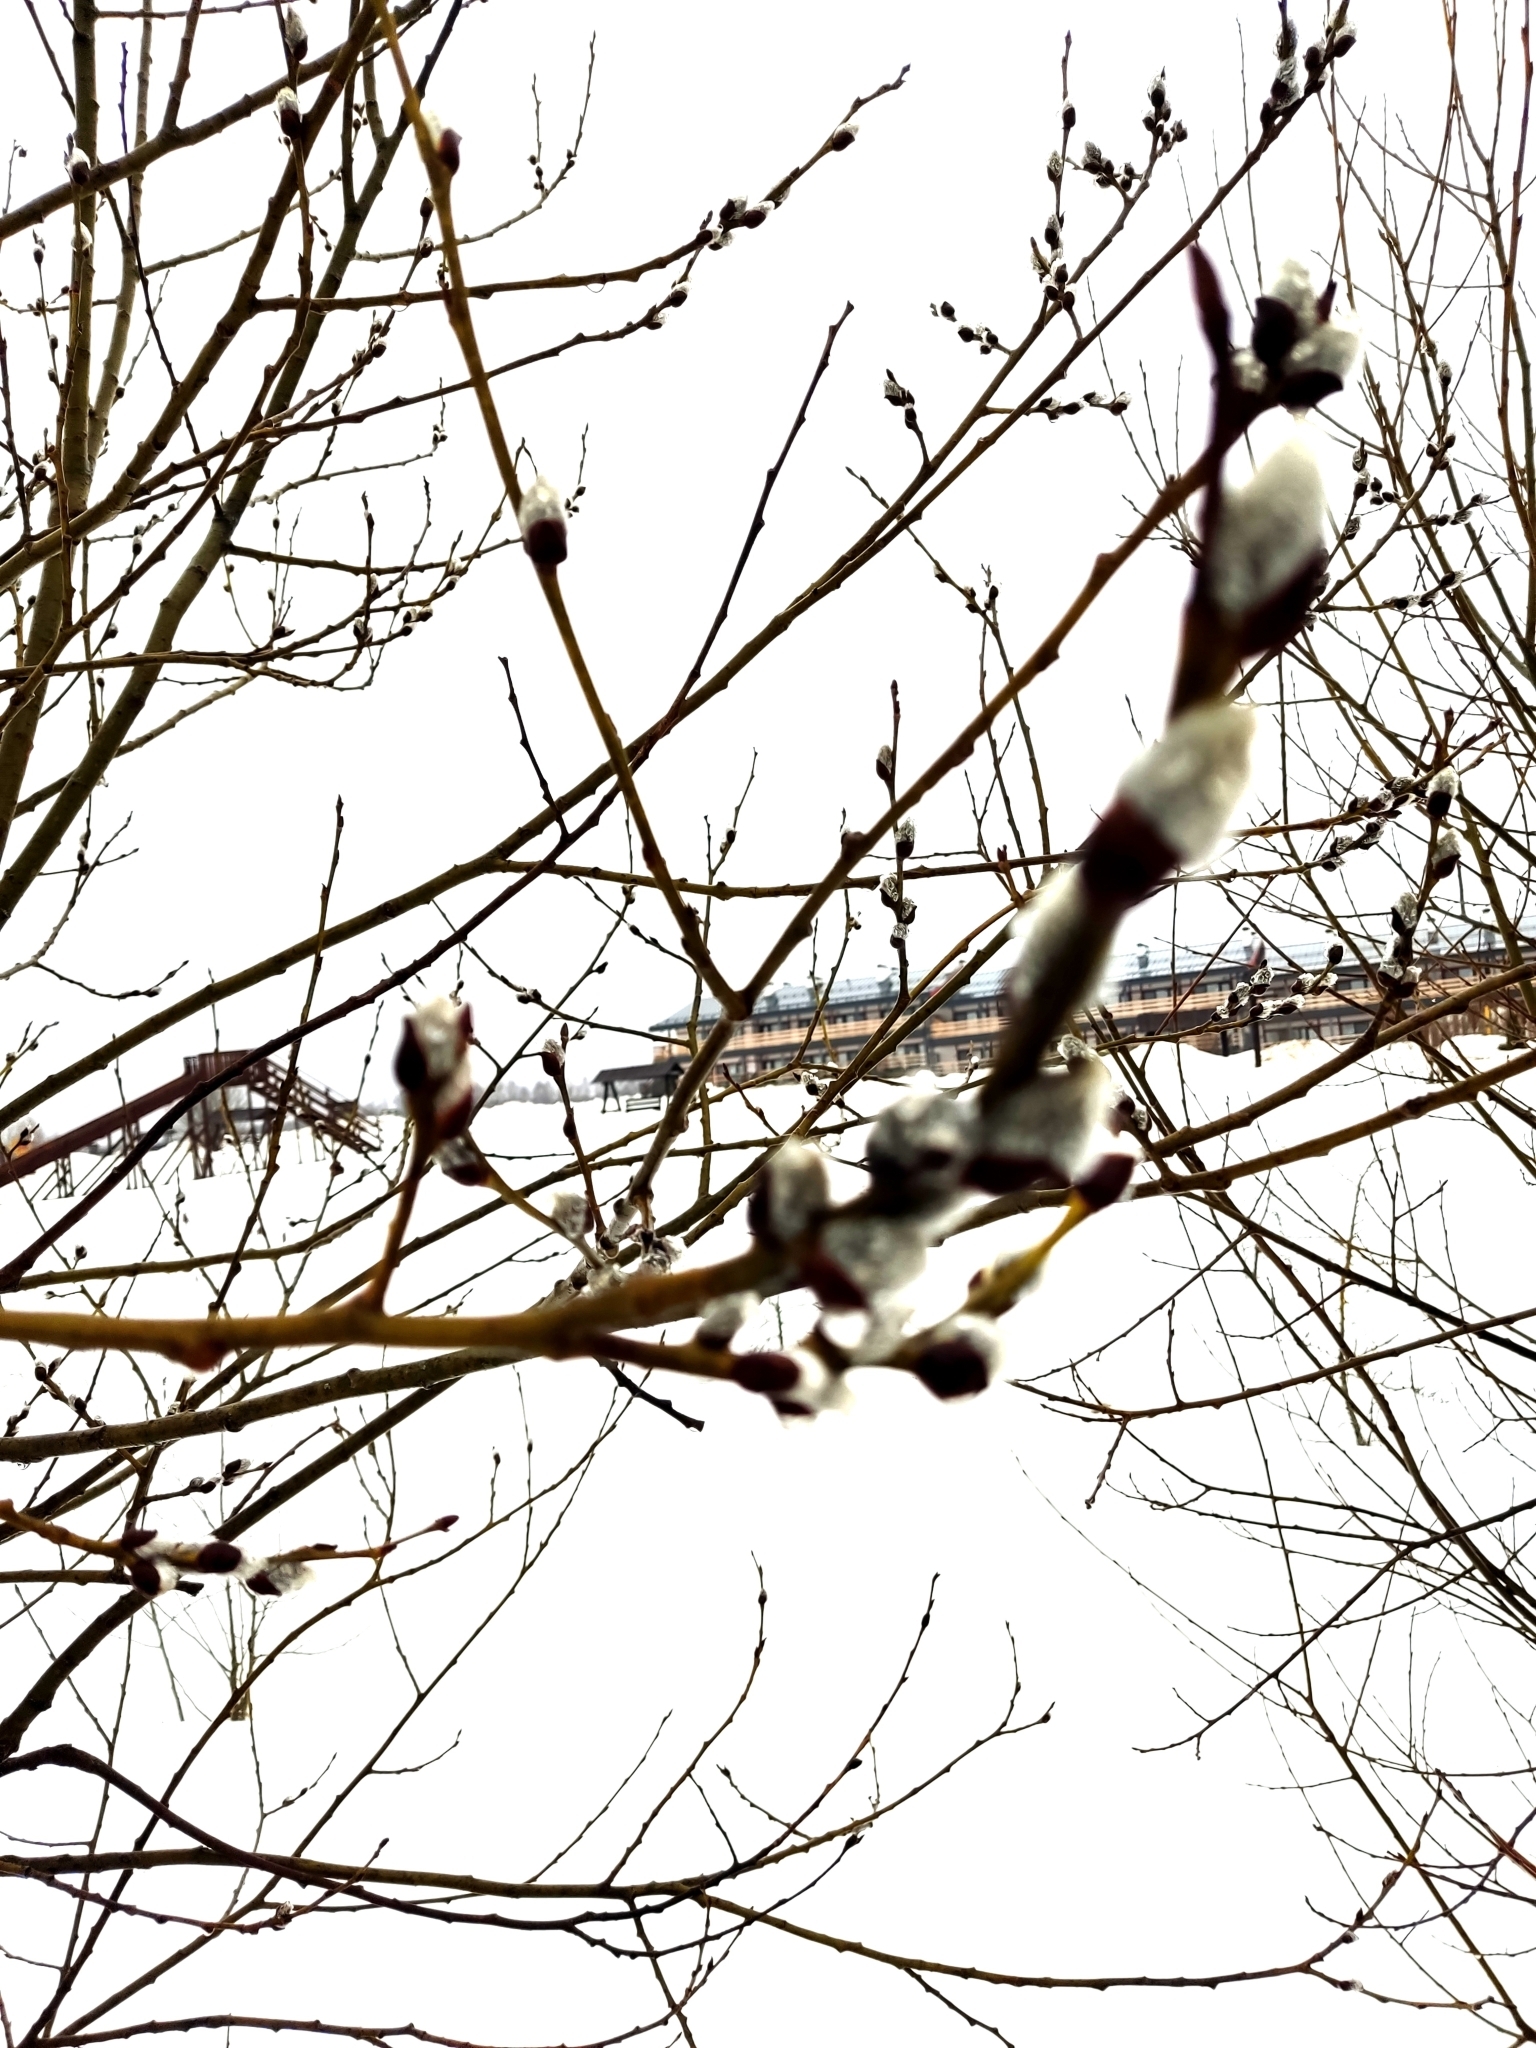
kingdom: Plantae
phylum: Tracheophyta
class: Magnoliopsida
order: Malpighiales
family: Salicaceae
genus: Salix
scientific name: Salix caprea
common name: Goat willow
